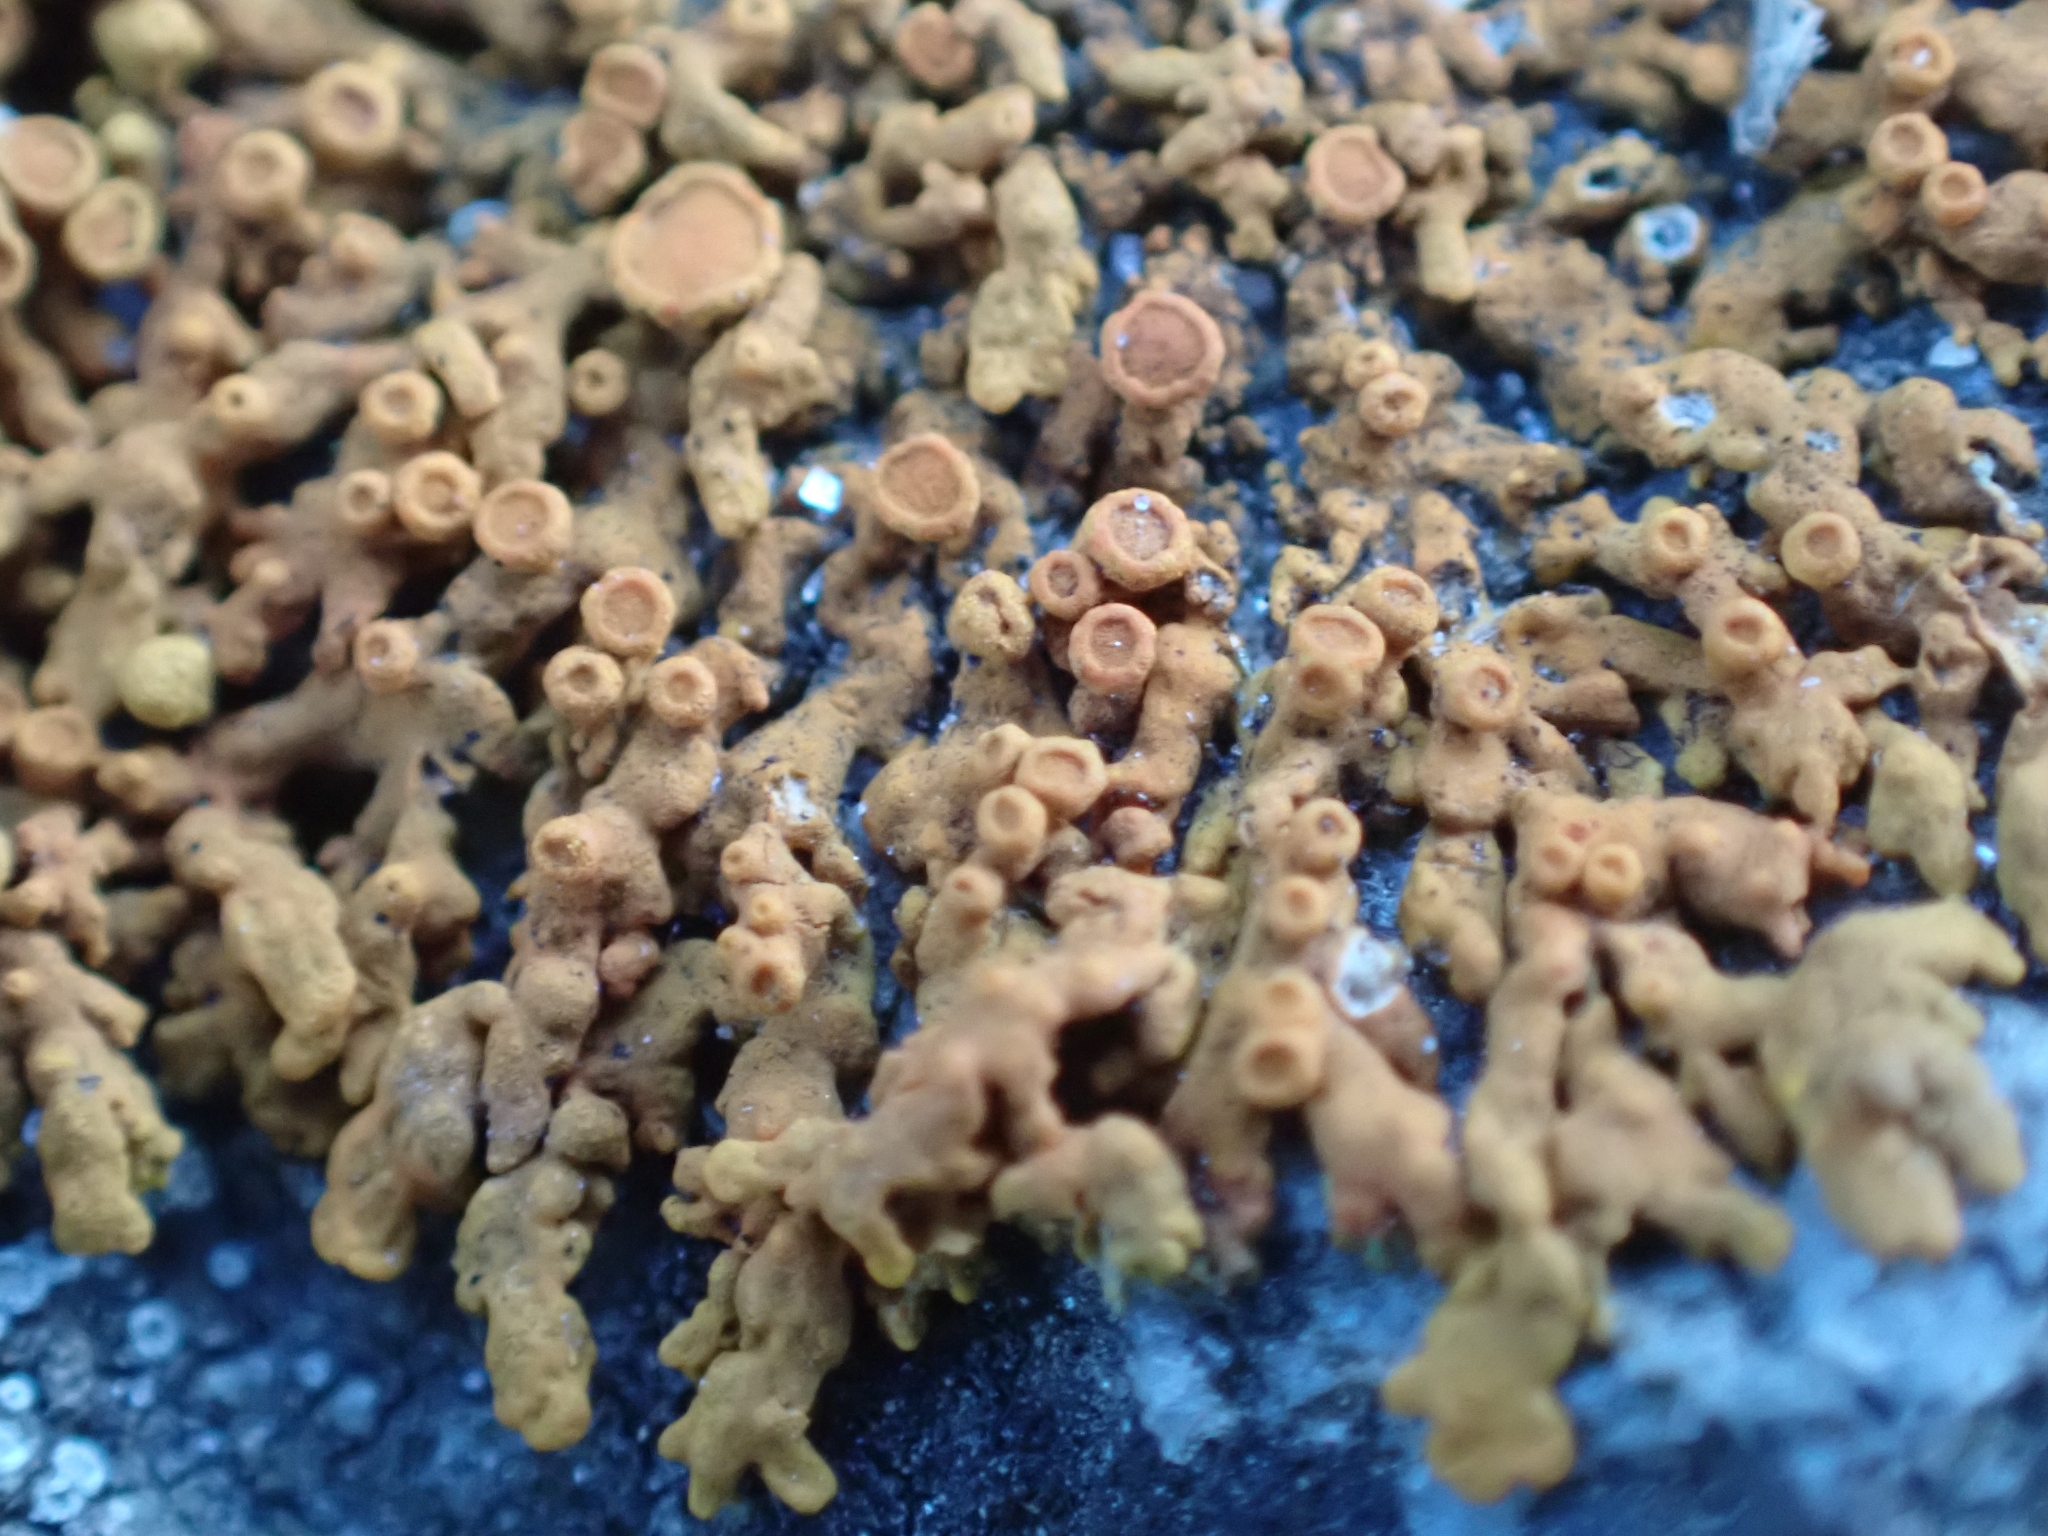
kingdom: Fungi
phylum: Ascomycota
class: Lecanoromycetes
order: Teloschistales
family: Teloschistaceae
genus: Xanthoria
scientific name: Xanthoria elegans
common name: Elegant sunburst lichen
